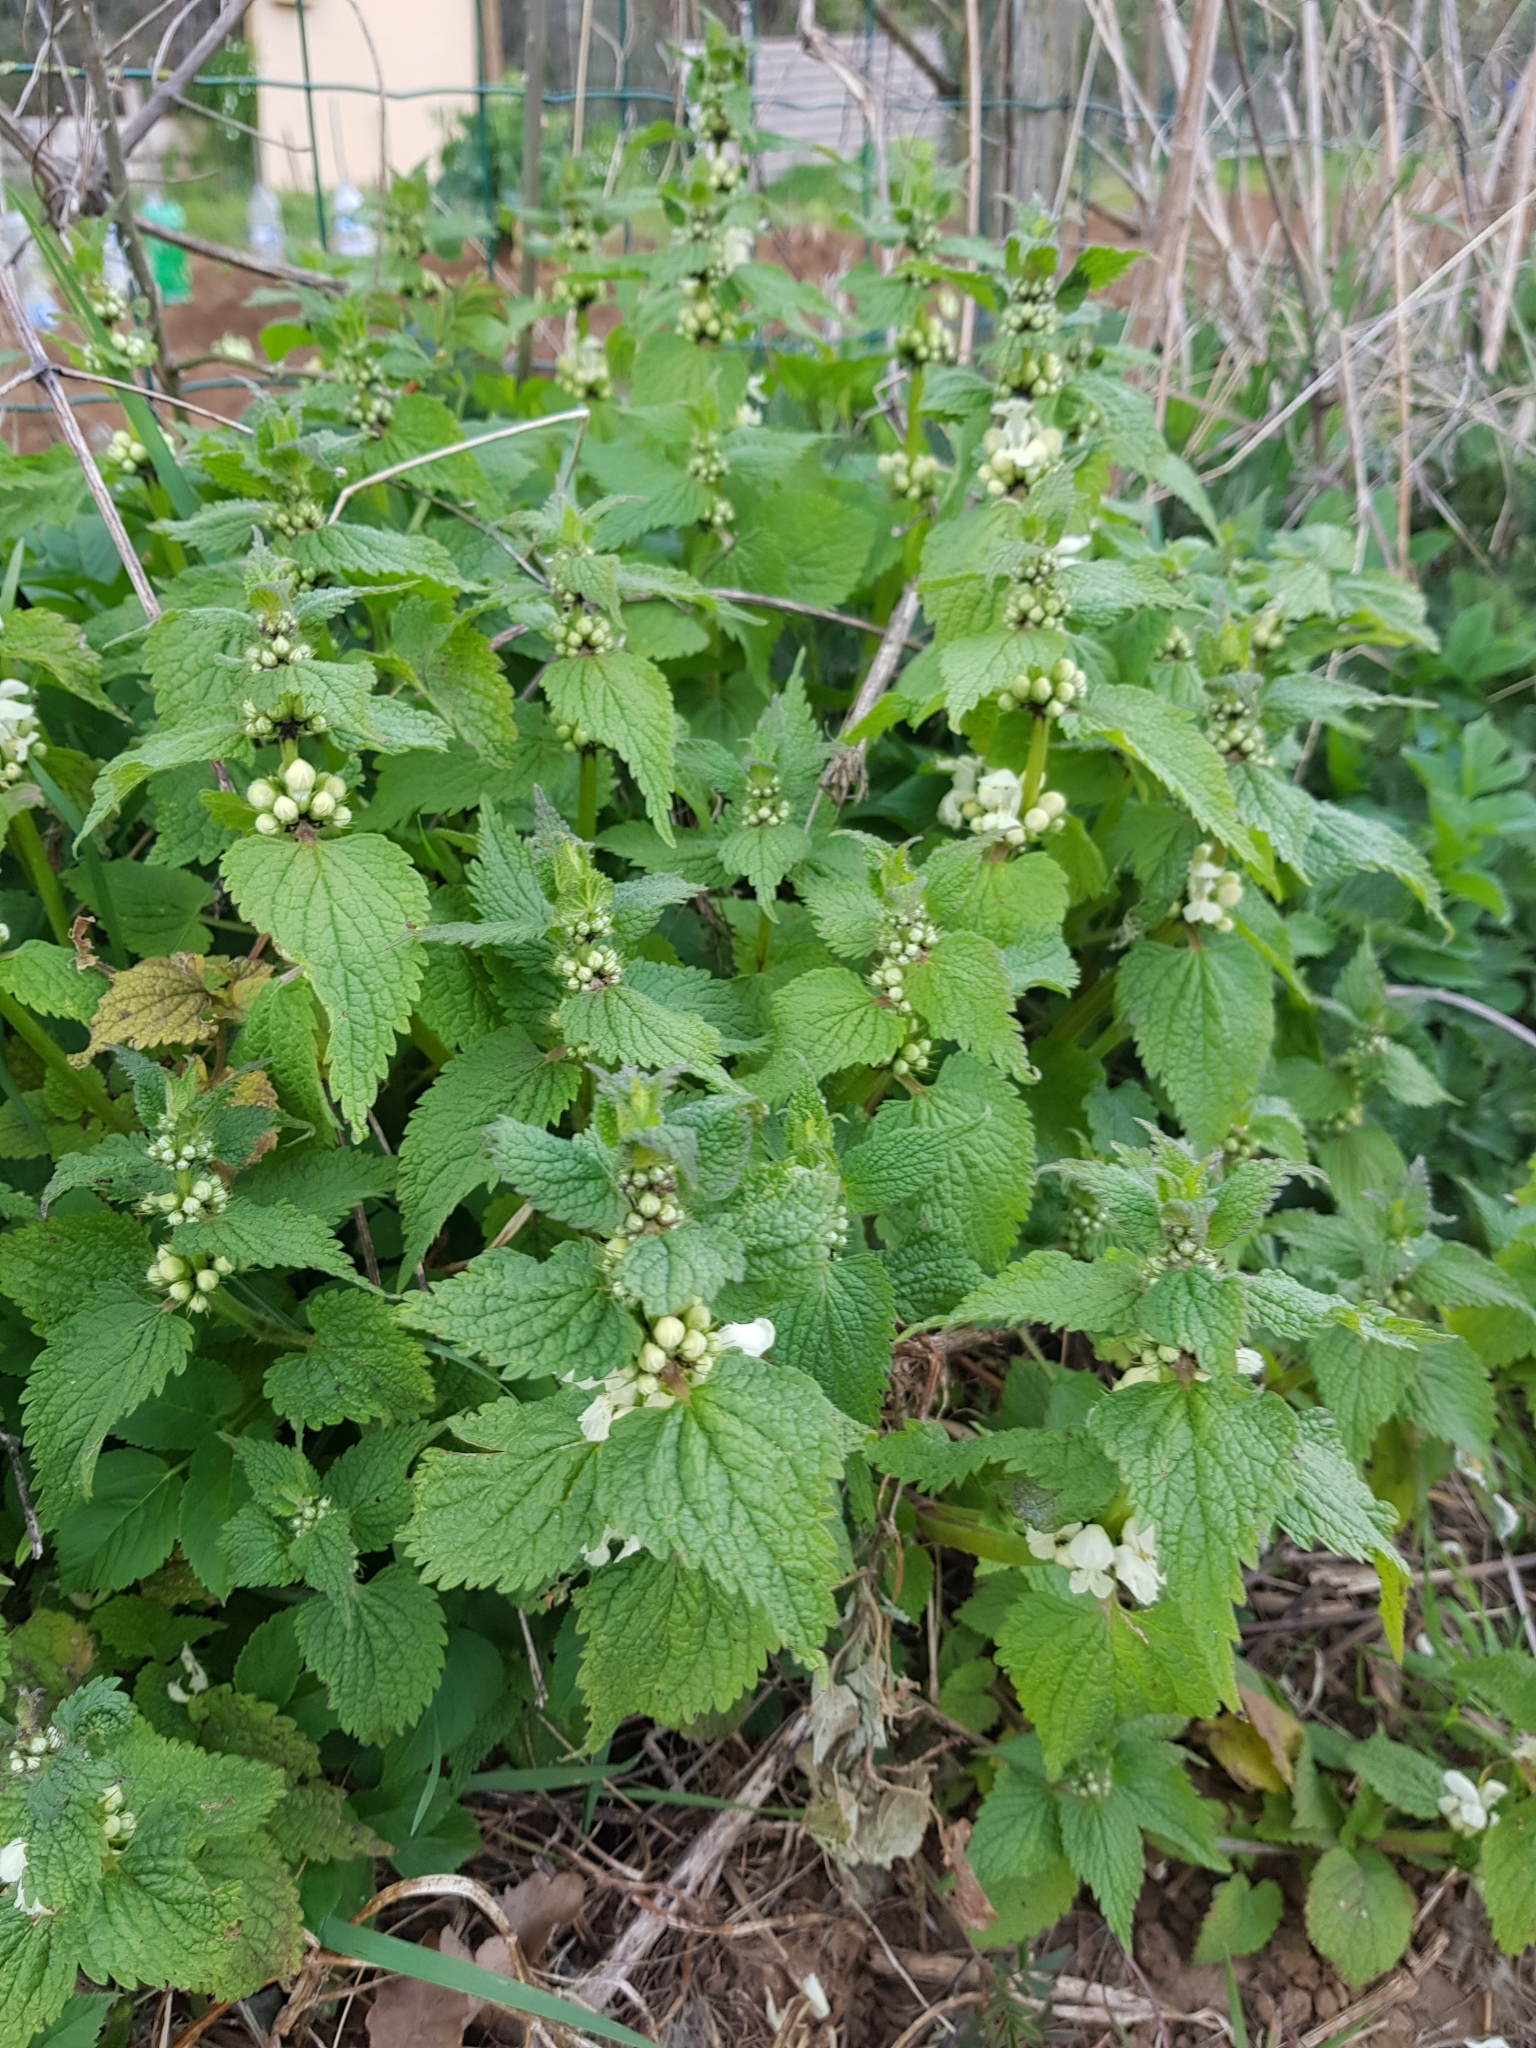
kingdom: Plantae
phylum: Tracheophyta
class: Magnoliopsida
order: Lamiales
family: Lamiaceae
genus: Lamium
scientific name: Lamium album
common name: White dead-nettle
